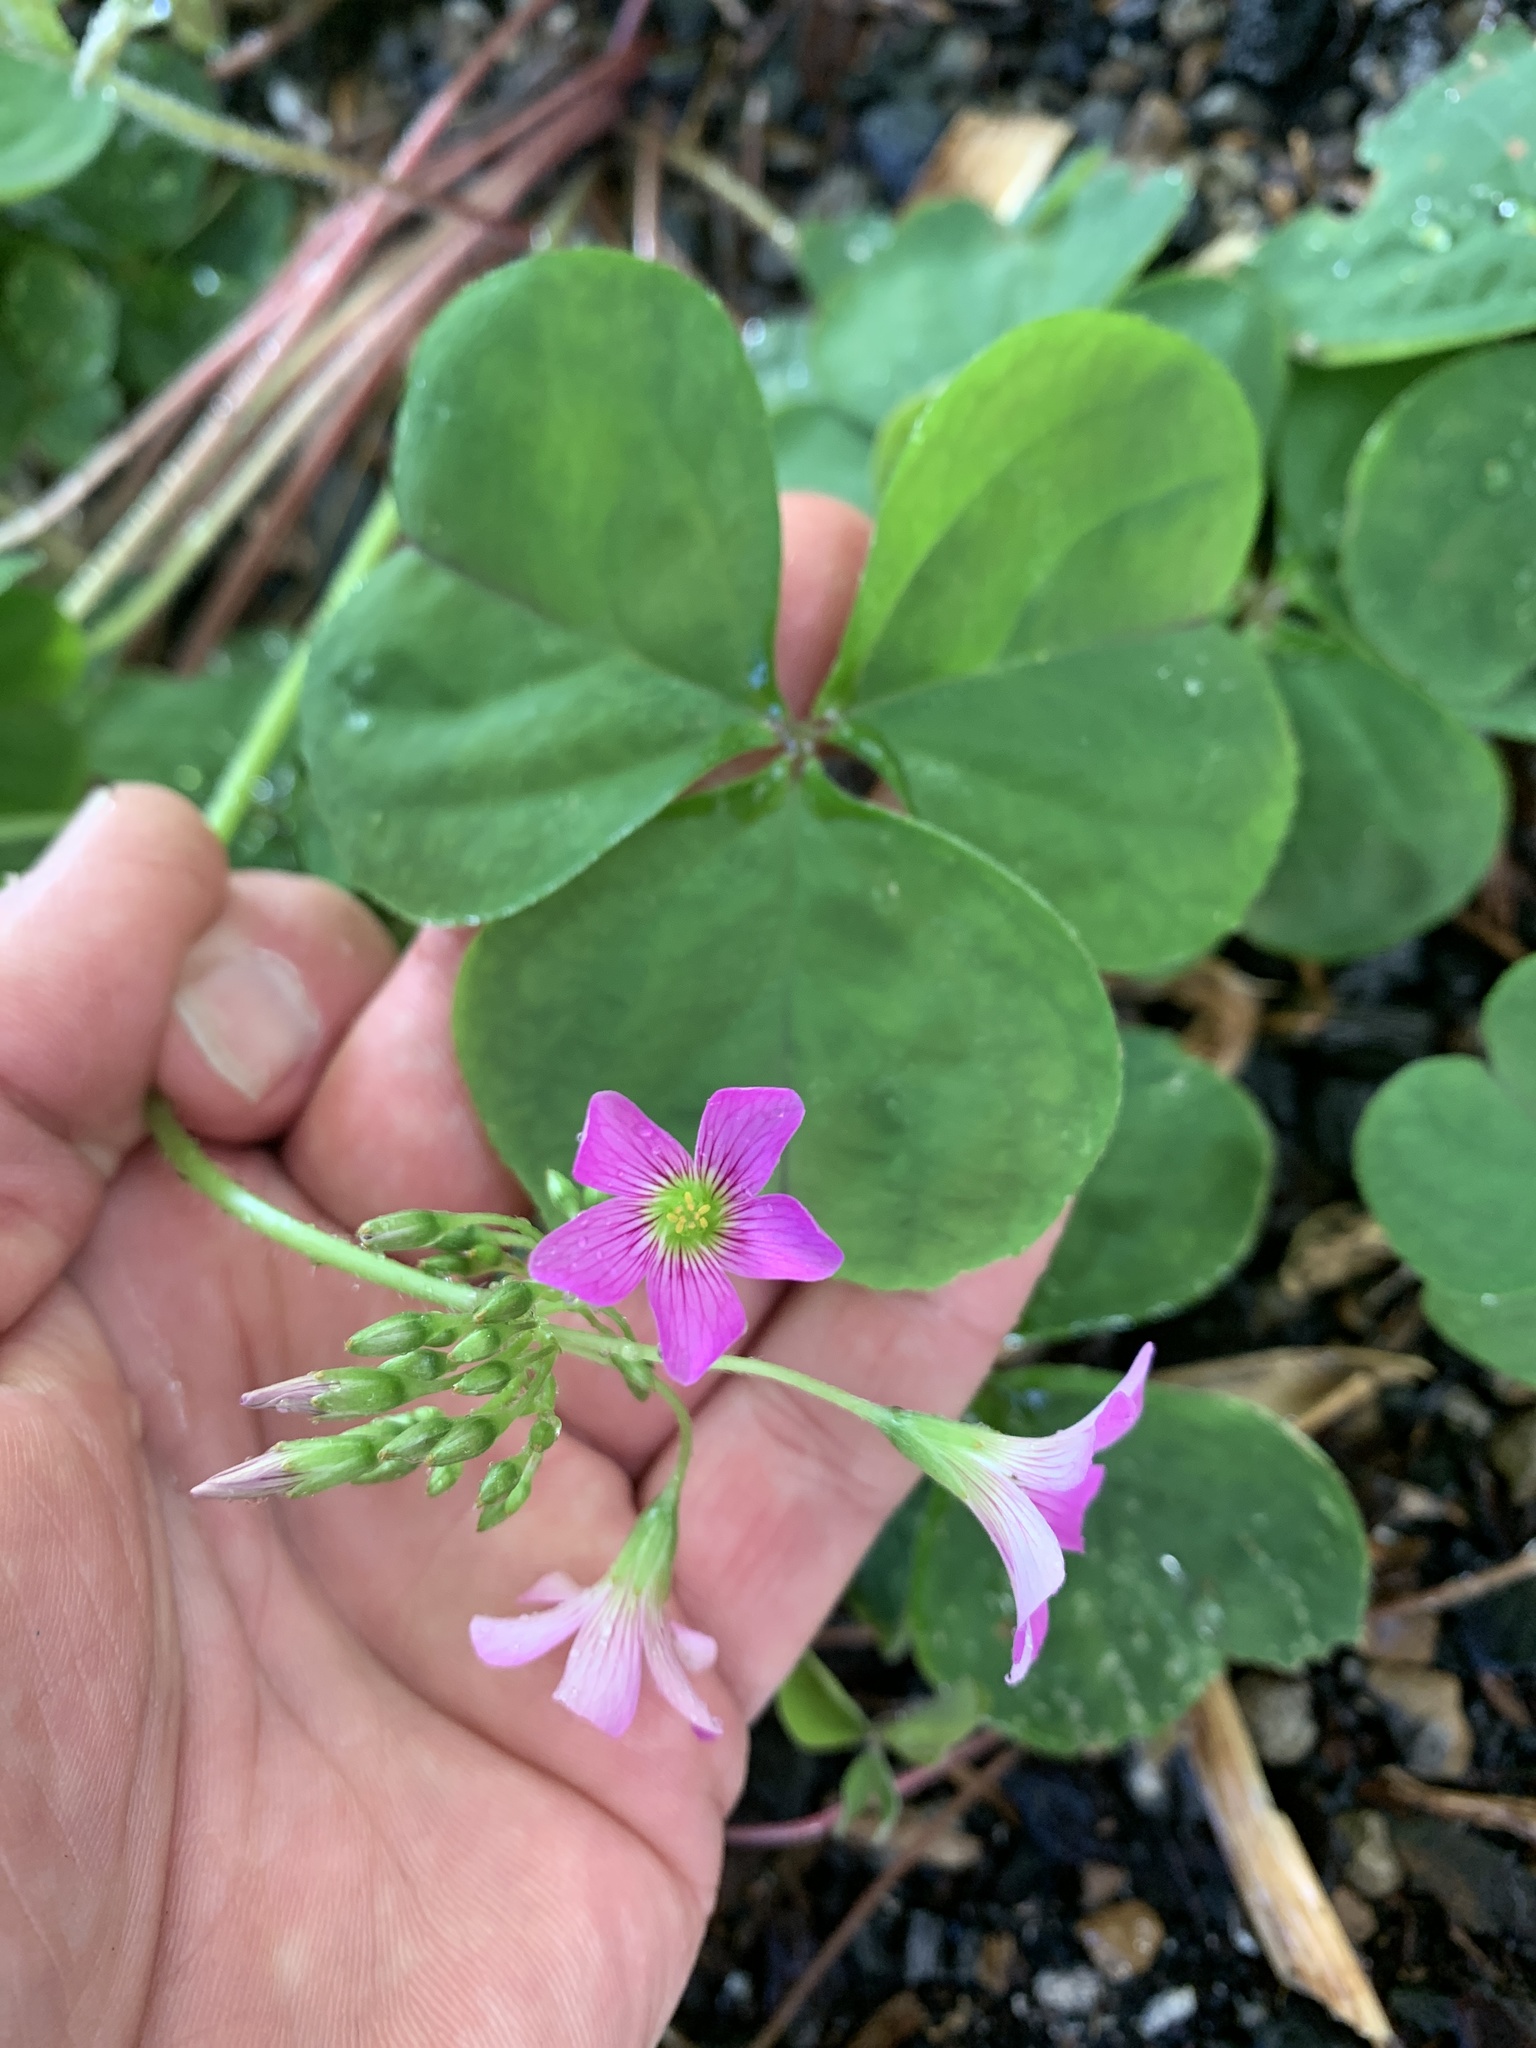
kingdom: Plantae
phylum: Tracheophyta
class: Magnoliopsida
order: Oxalidales
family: Oxalidaceae
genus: Oxalis
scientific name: Oxalis debilis
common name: Large-flowered pink-sorrel
